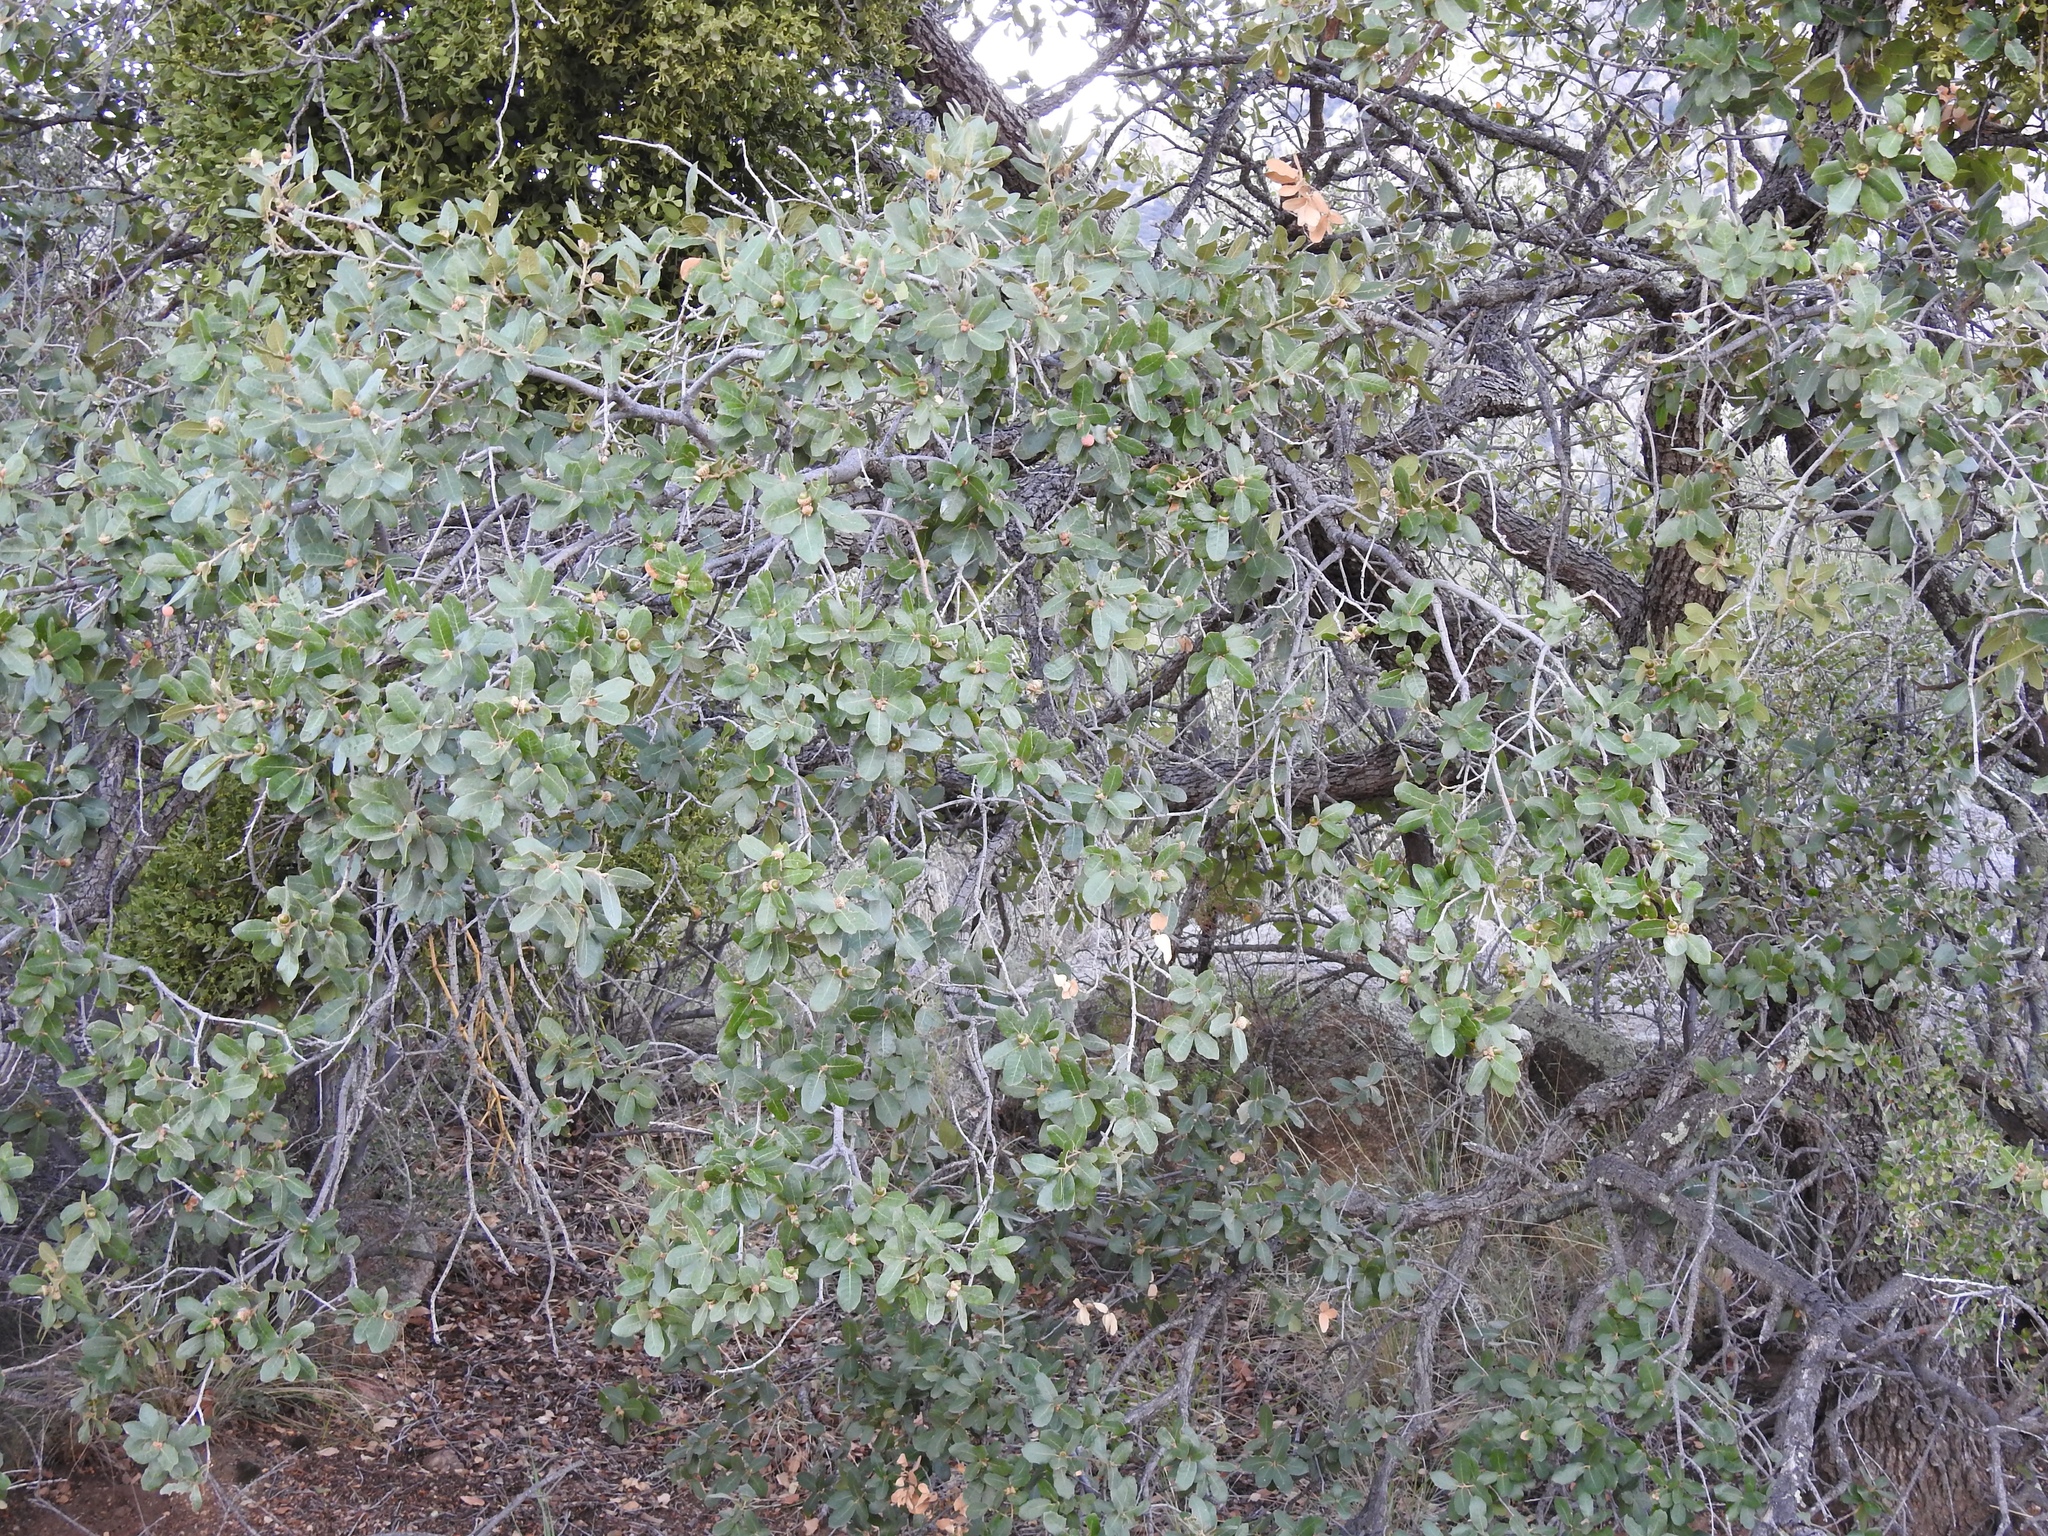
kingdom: Plantae
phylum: Tracheophyta
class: Magnoliopsida
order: Fagales
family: Fagaceae
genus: Quercus
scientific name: Quercus grisea
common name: Gray oak
